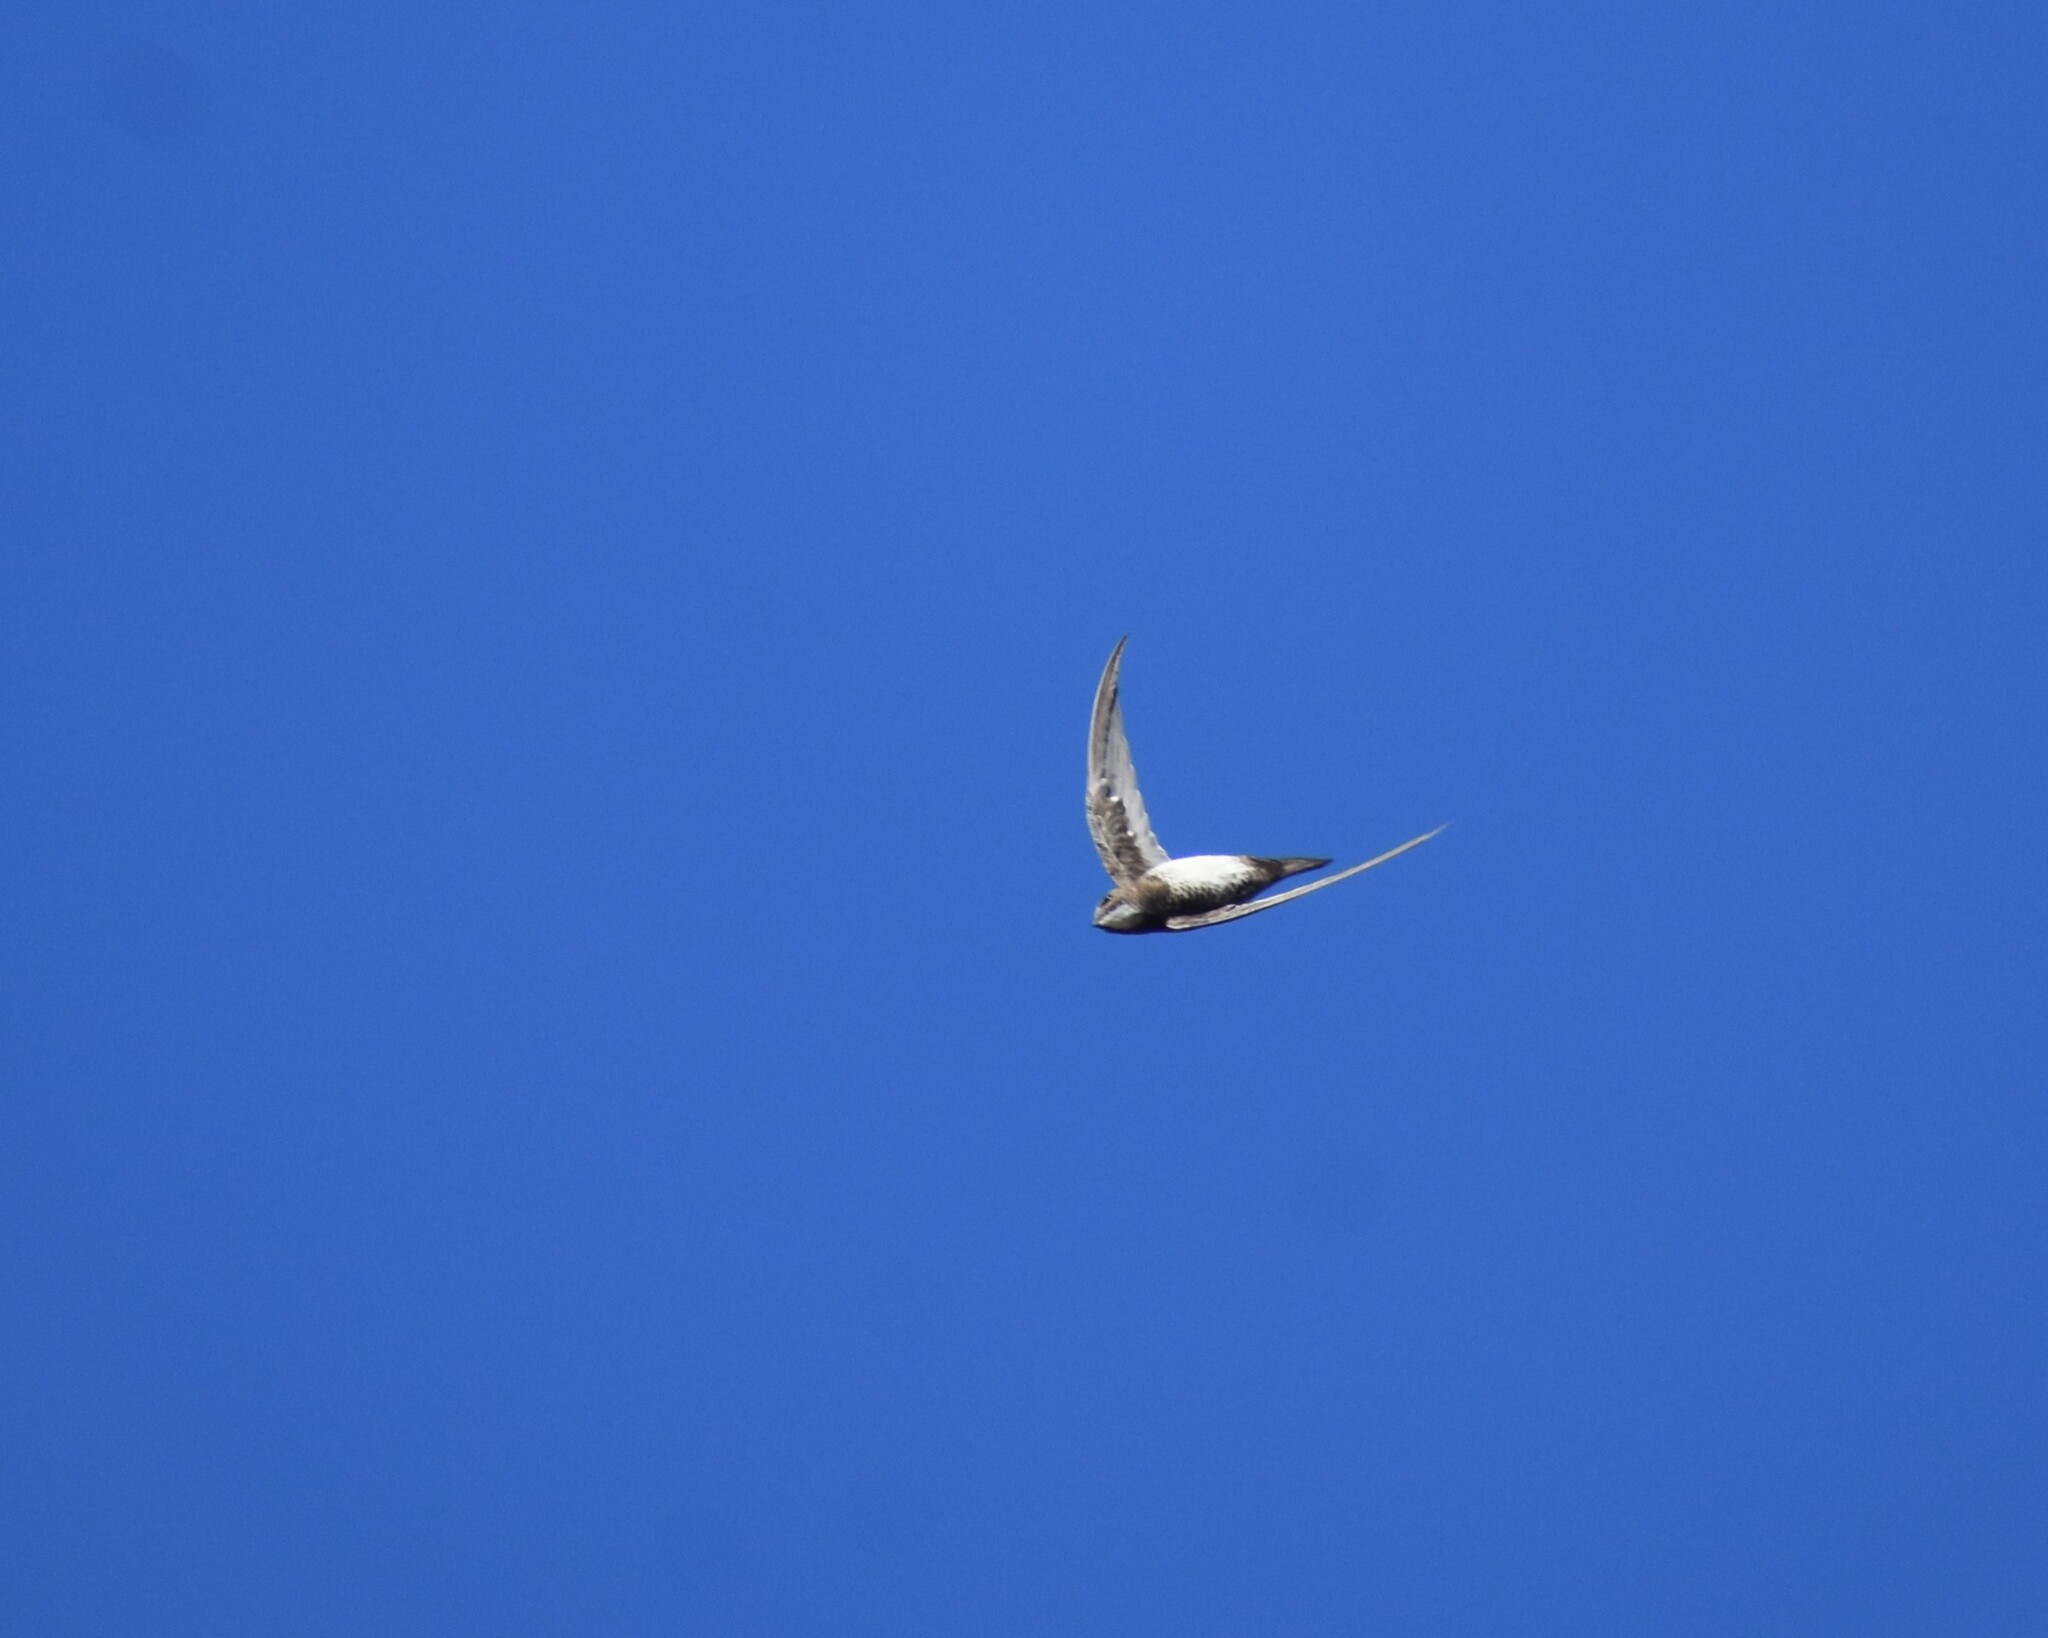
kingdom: Animalia
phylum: Chordata
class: Aves
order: Apodiformes
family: Apodidae
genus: Tachymarptis
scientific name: Tachymarptis melba
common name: Alpine swift
